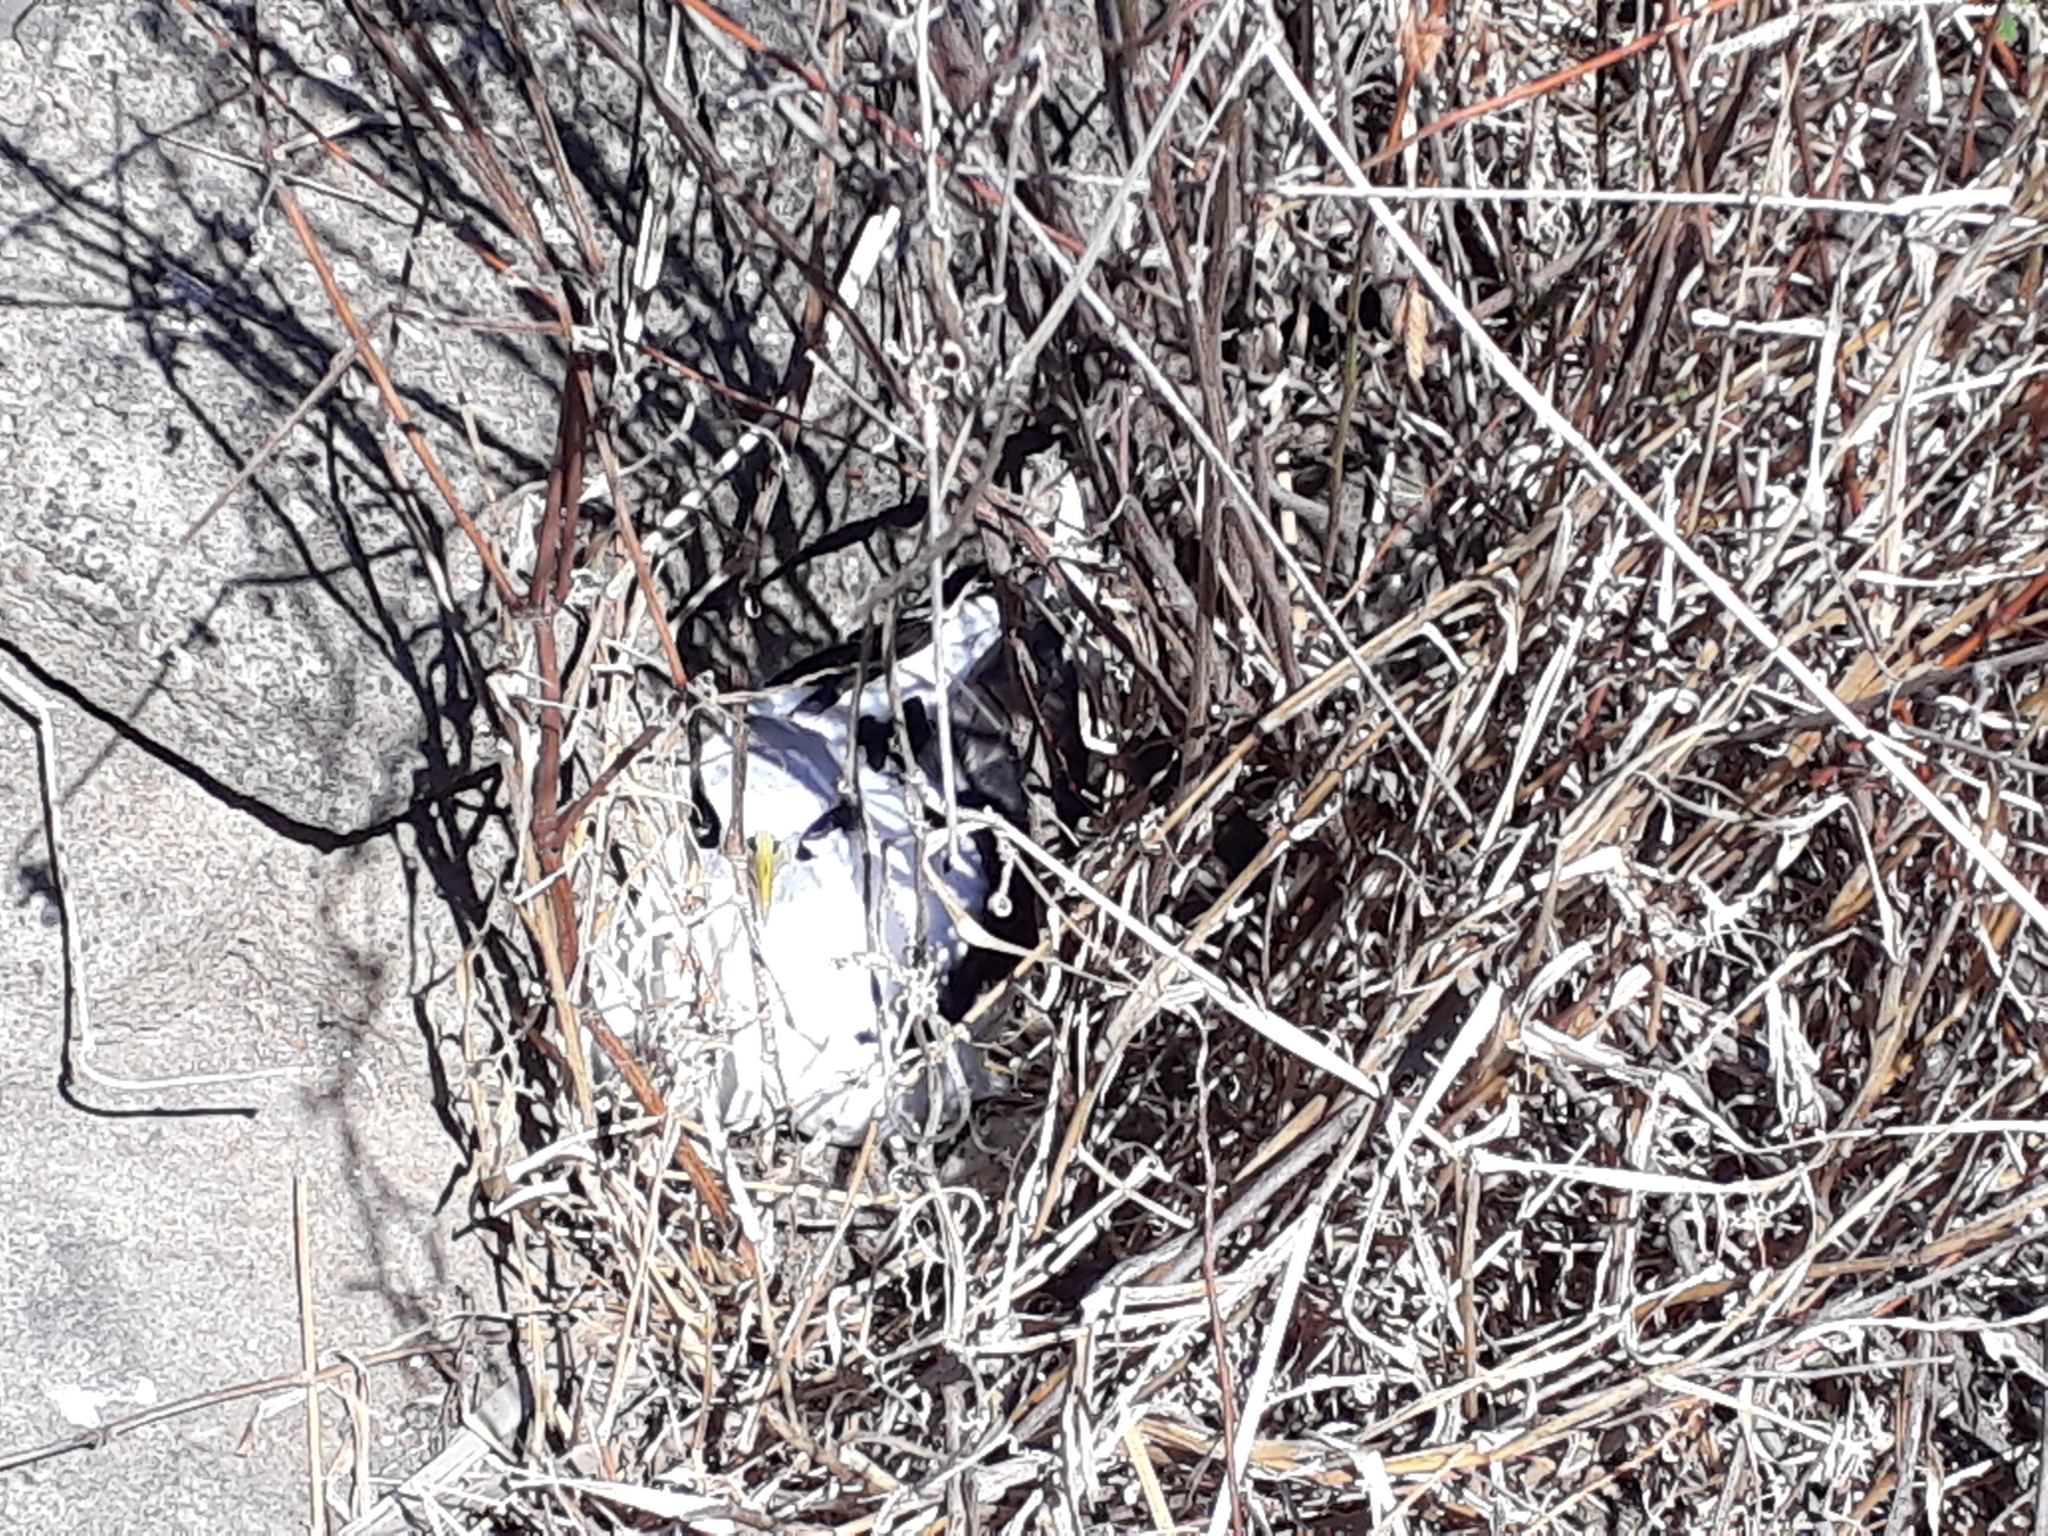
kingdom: Animalia
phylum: Chordata
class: Aves
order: Phaethontiformes
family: Phaethontidae
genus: Phaethon
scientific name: Phaethon lepturus
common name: White-tailed tropicbird
